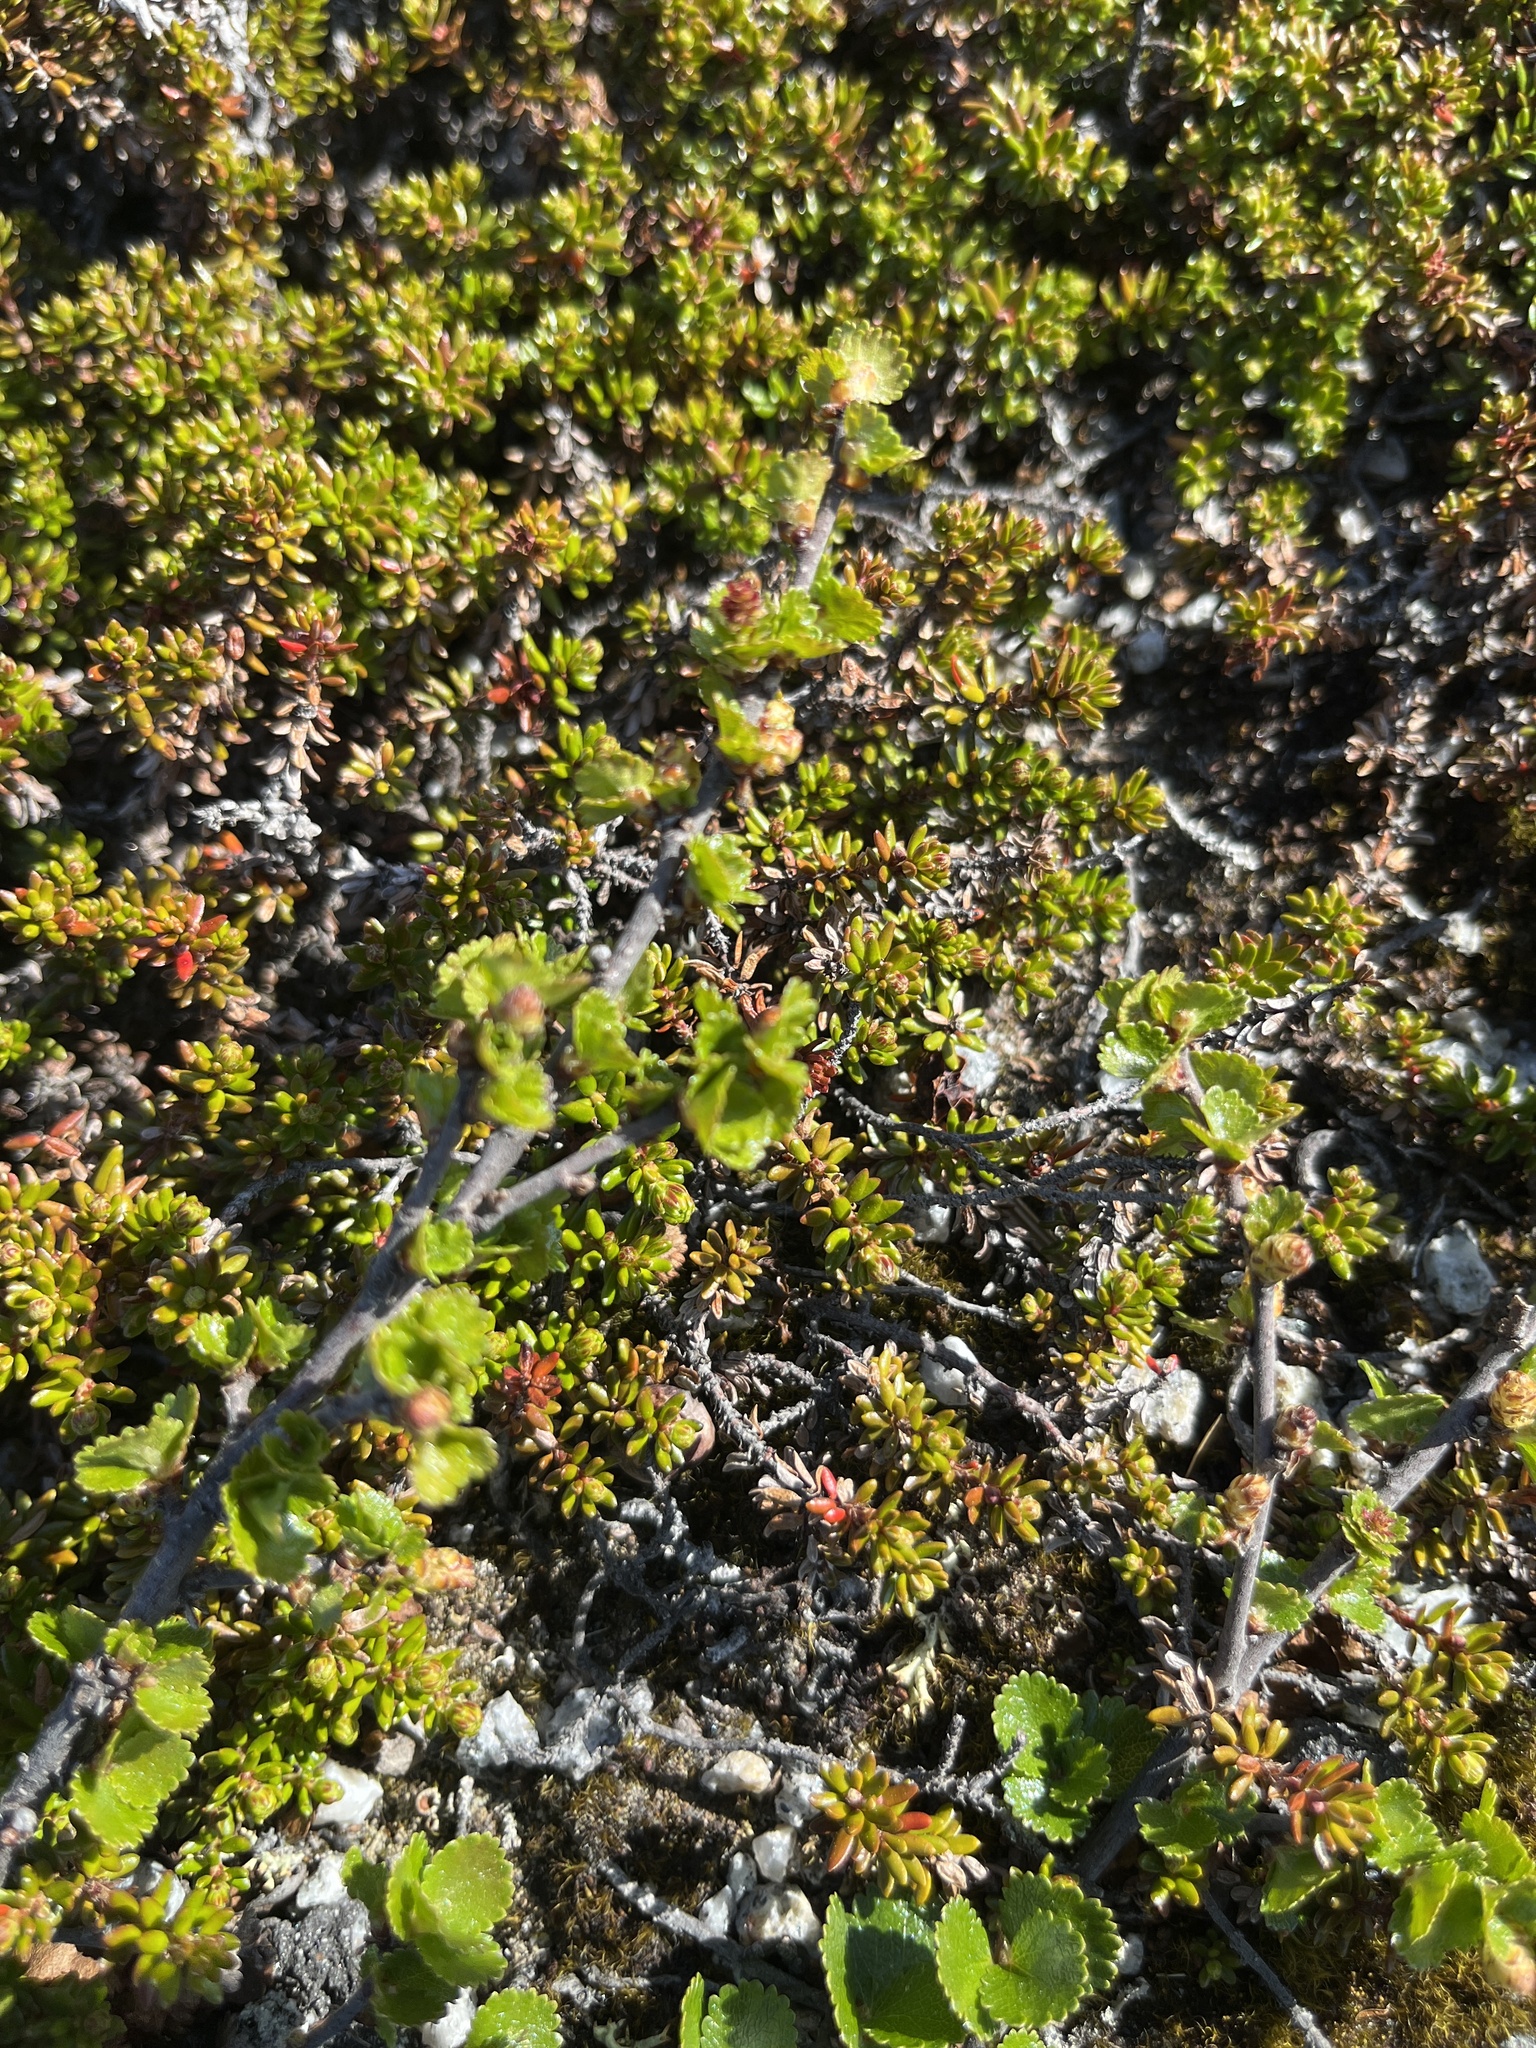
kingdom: Plantae
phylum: Tracheophyta
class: Magnoliopsida
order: Fagales
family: Betulaceae
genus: Betula
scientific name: Betula nana
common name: Arctic dwarf birch
